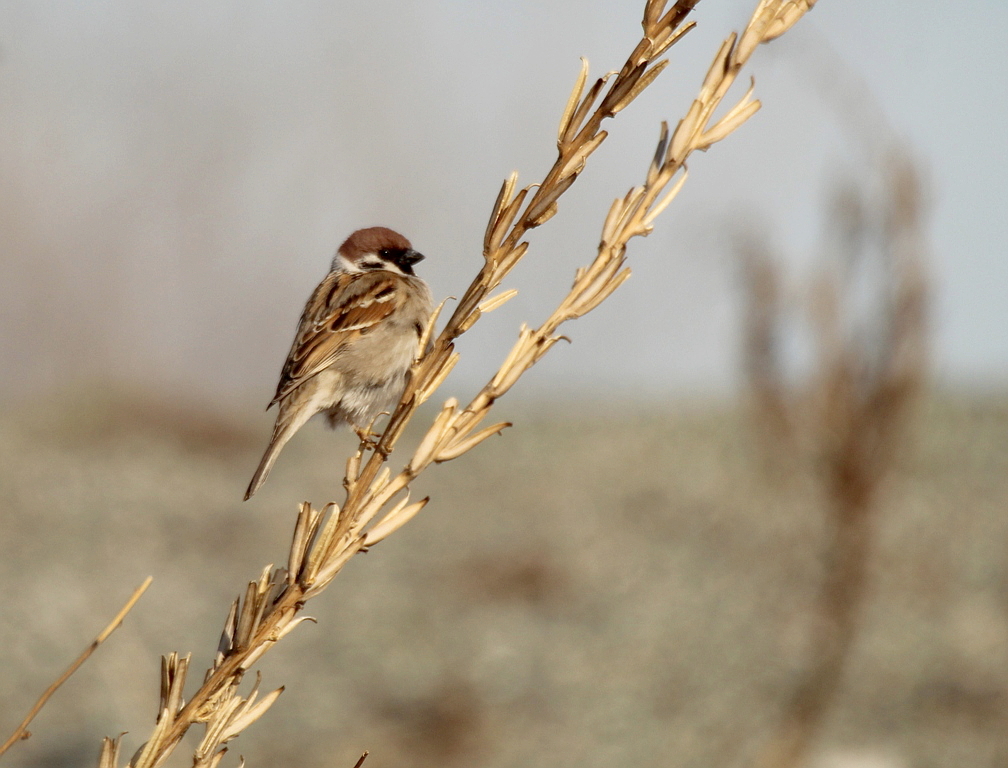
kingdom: Animalia
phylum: Chordata
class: Aves
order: Passeriformes
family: Passeridae
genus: Passer
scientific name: Passer montanus
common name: Eurasian tree sparrow
